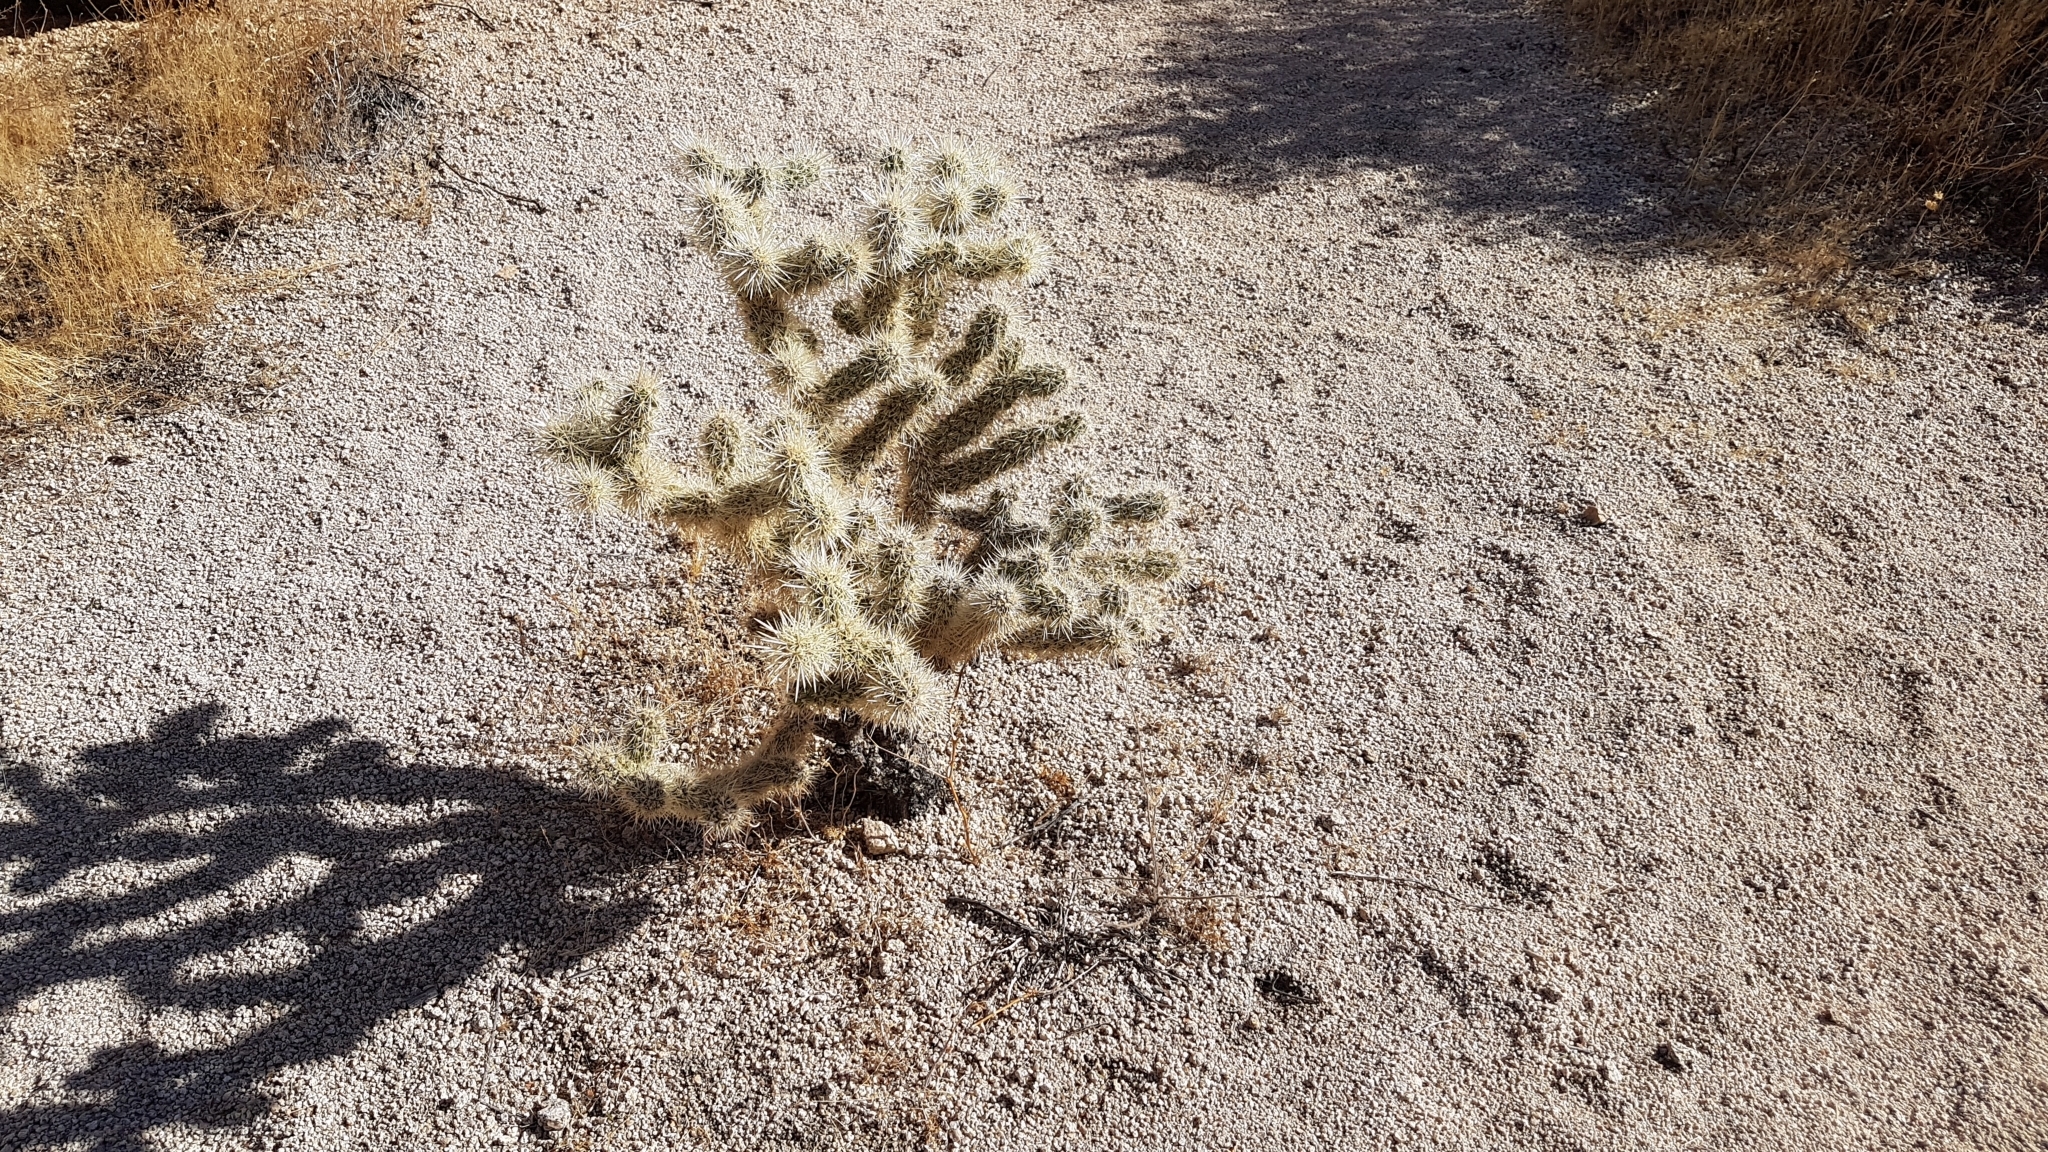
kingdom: Plantae
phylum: Tracheophyta
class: Magnoliopsida
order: Caryophyllales
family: Cactaceae
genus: Cylindropuntia
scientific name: Cylindropuntia echinocarpa
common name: Ground cholla
